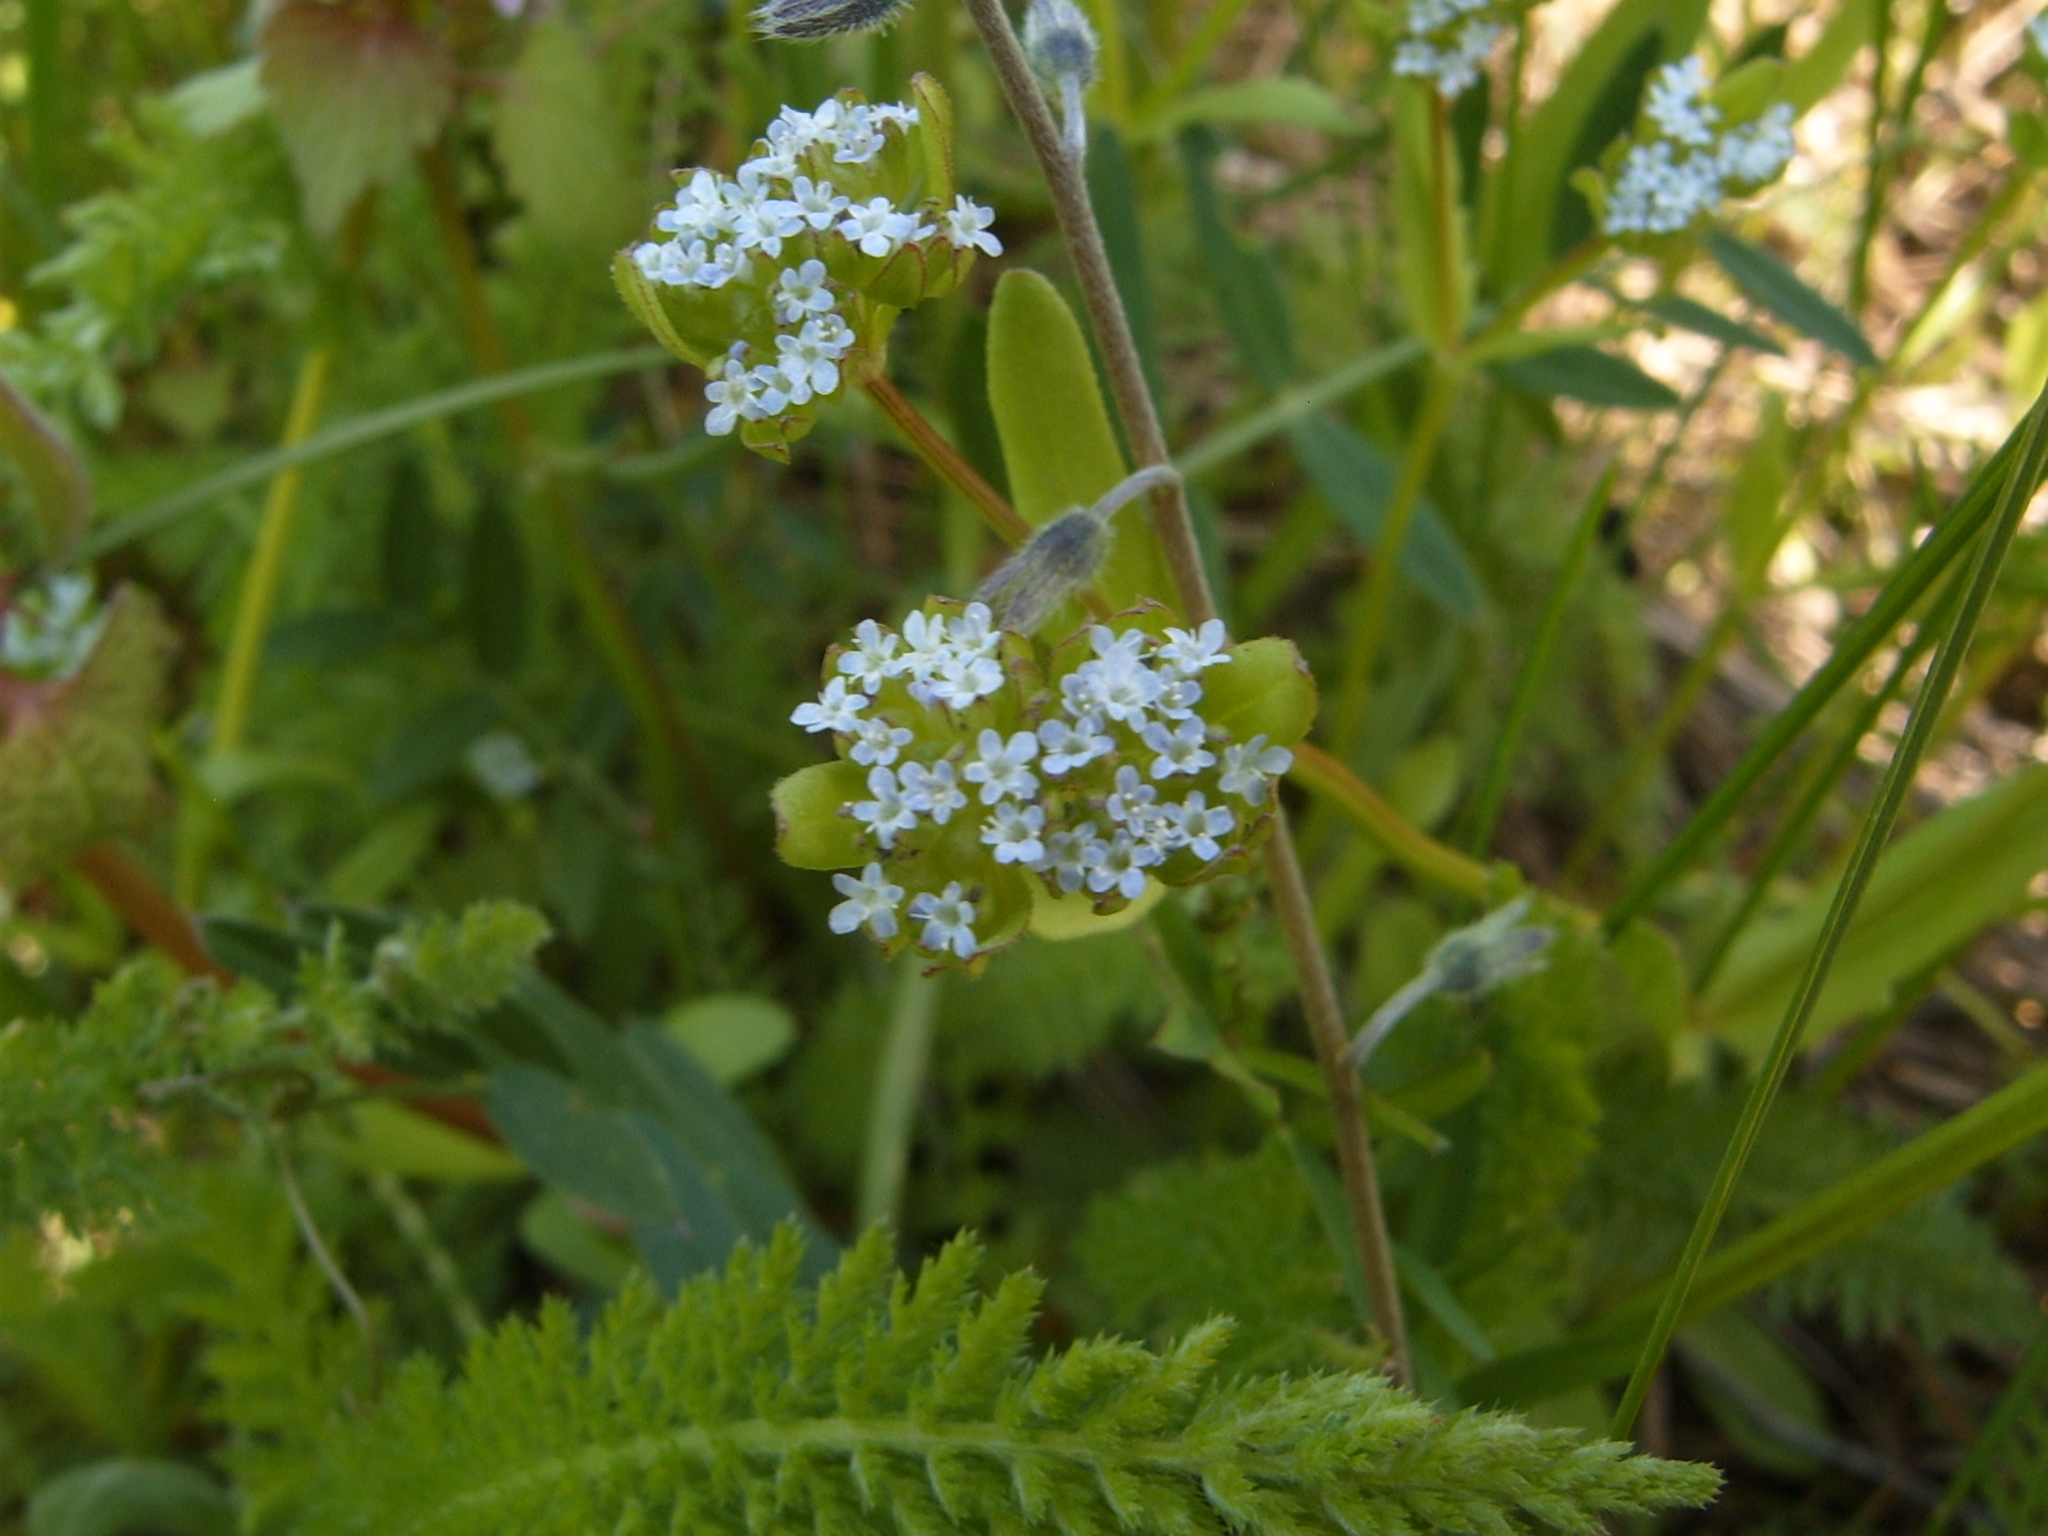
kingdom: Plantae
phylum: Tracheophyta
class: Magnoliopsida
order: Dipsacales
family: Caprifoliaceae
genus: Valerianella
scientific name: Valerianella locusta
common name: Common cornsalad
